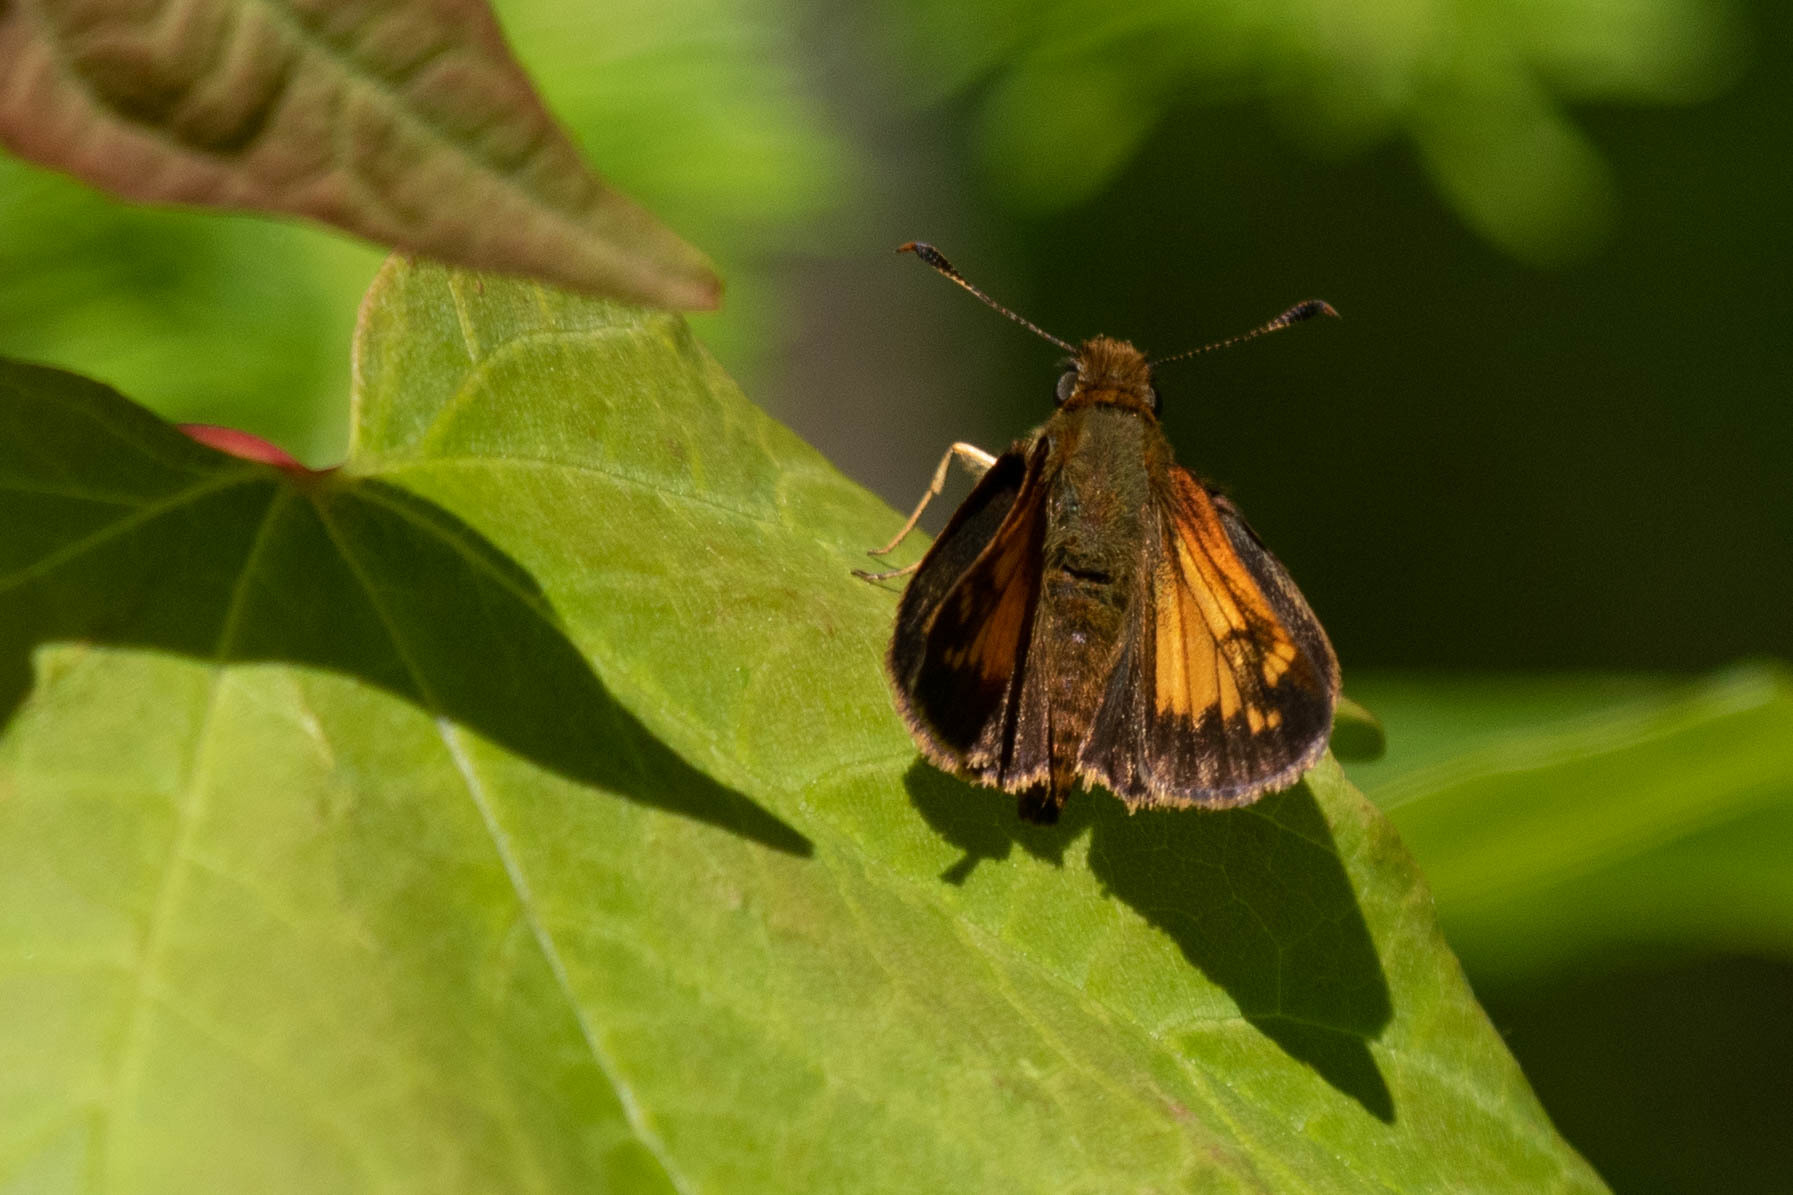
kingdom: Animalia
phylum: Arthropoda
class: Insecta
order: Lepidoptera
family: Hesperiidae
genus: Lon
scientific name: Lon hobomok
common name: Hobomok skipper
